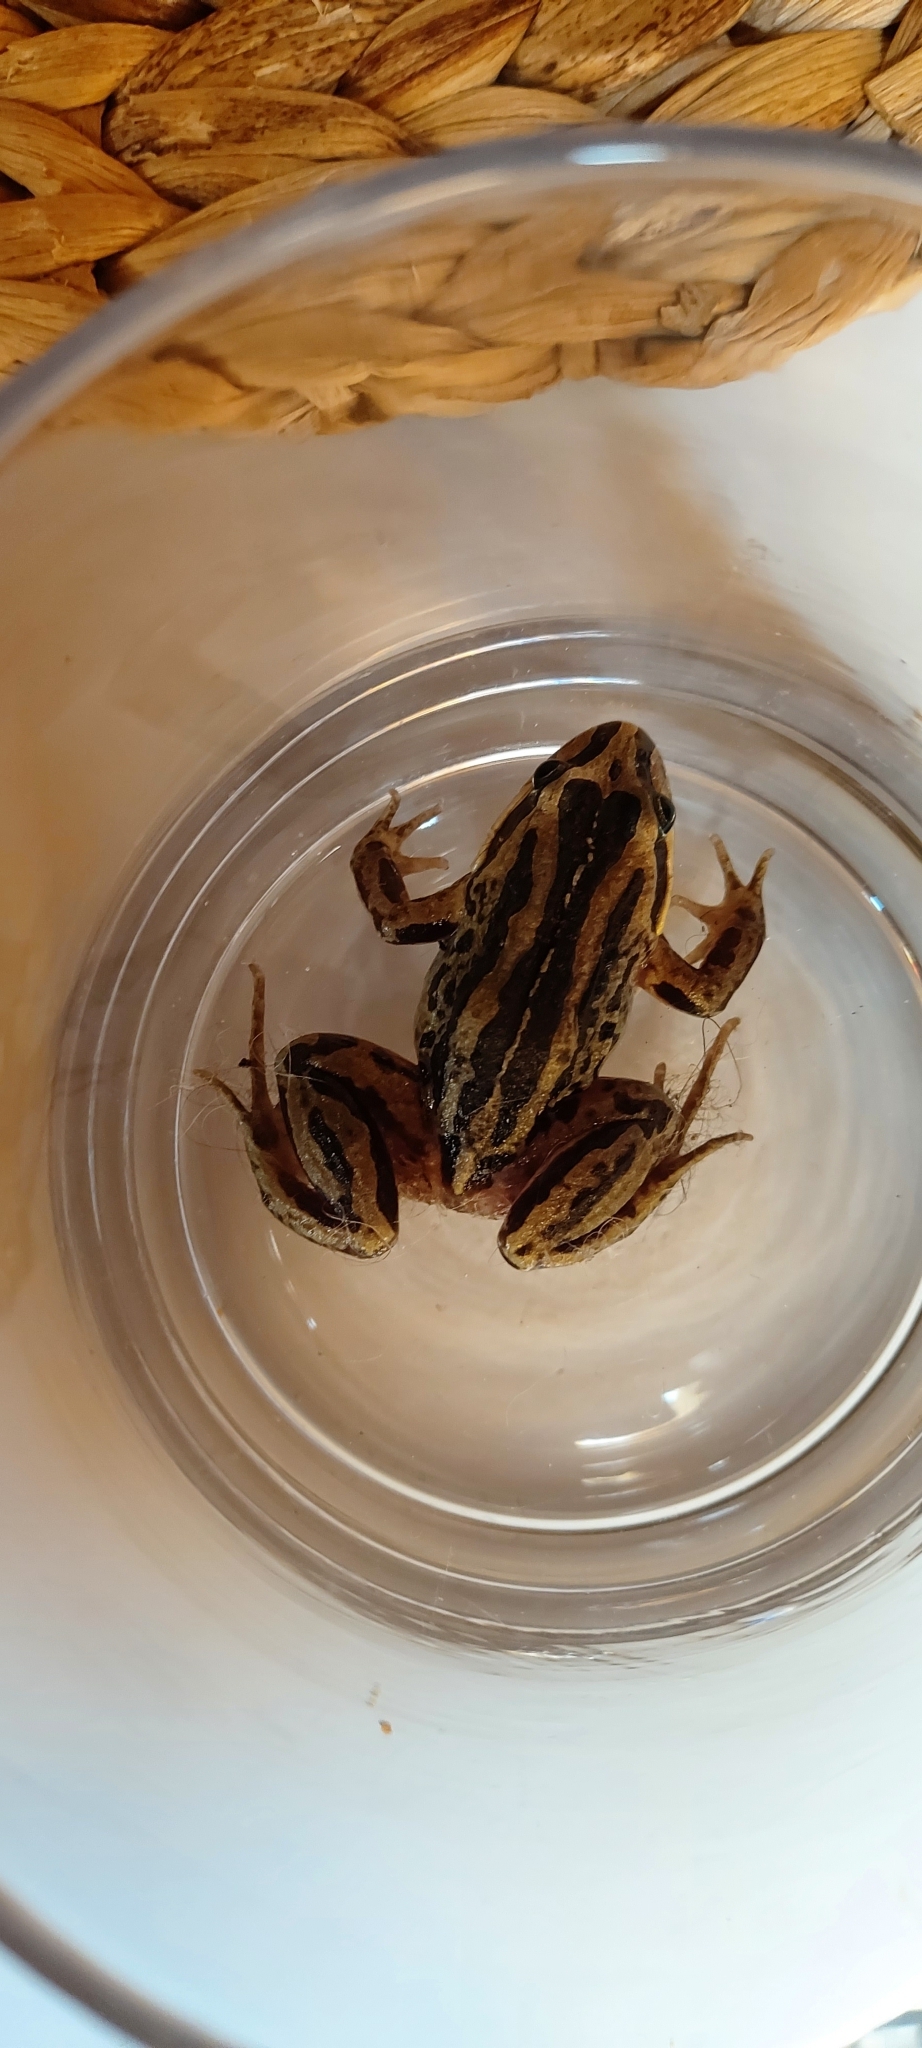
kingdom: Animalia
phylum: Chordata
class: Amphibia
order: Anura
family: Limnodynastidae
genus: Limnodynastes
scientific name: Limnodynastes peronii
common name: Brown frog
